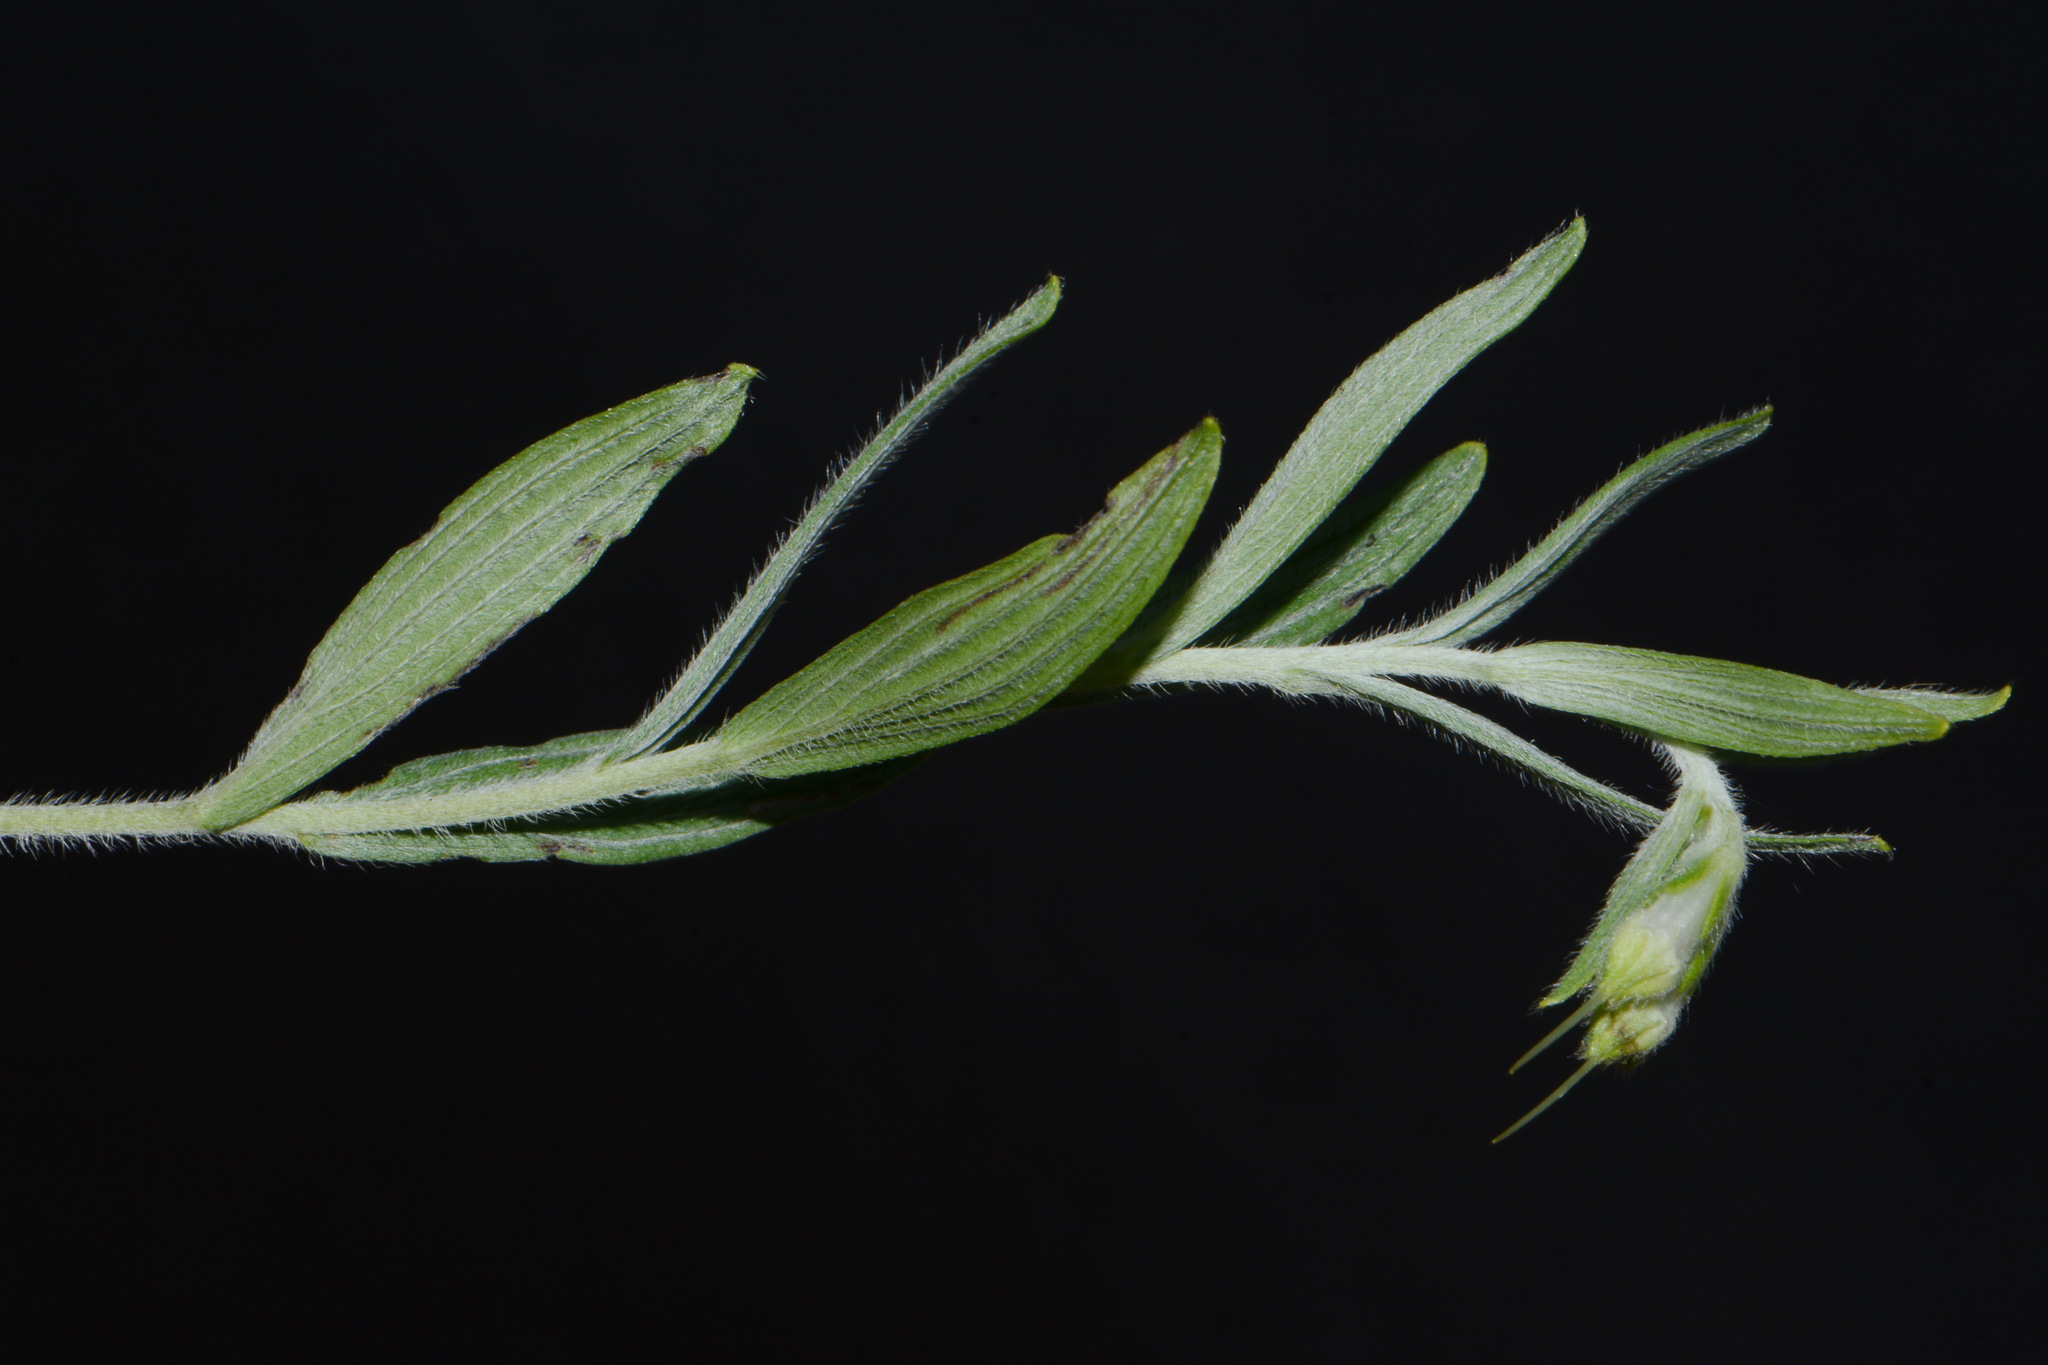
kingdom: Plantae
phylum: Tracheophyta
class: Magnoliopsida
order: Boraginales
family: Boraginaceae
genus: Lithospermum
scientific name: Lithospermum molle
